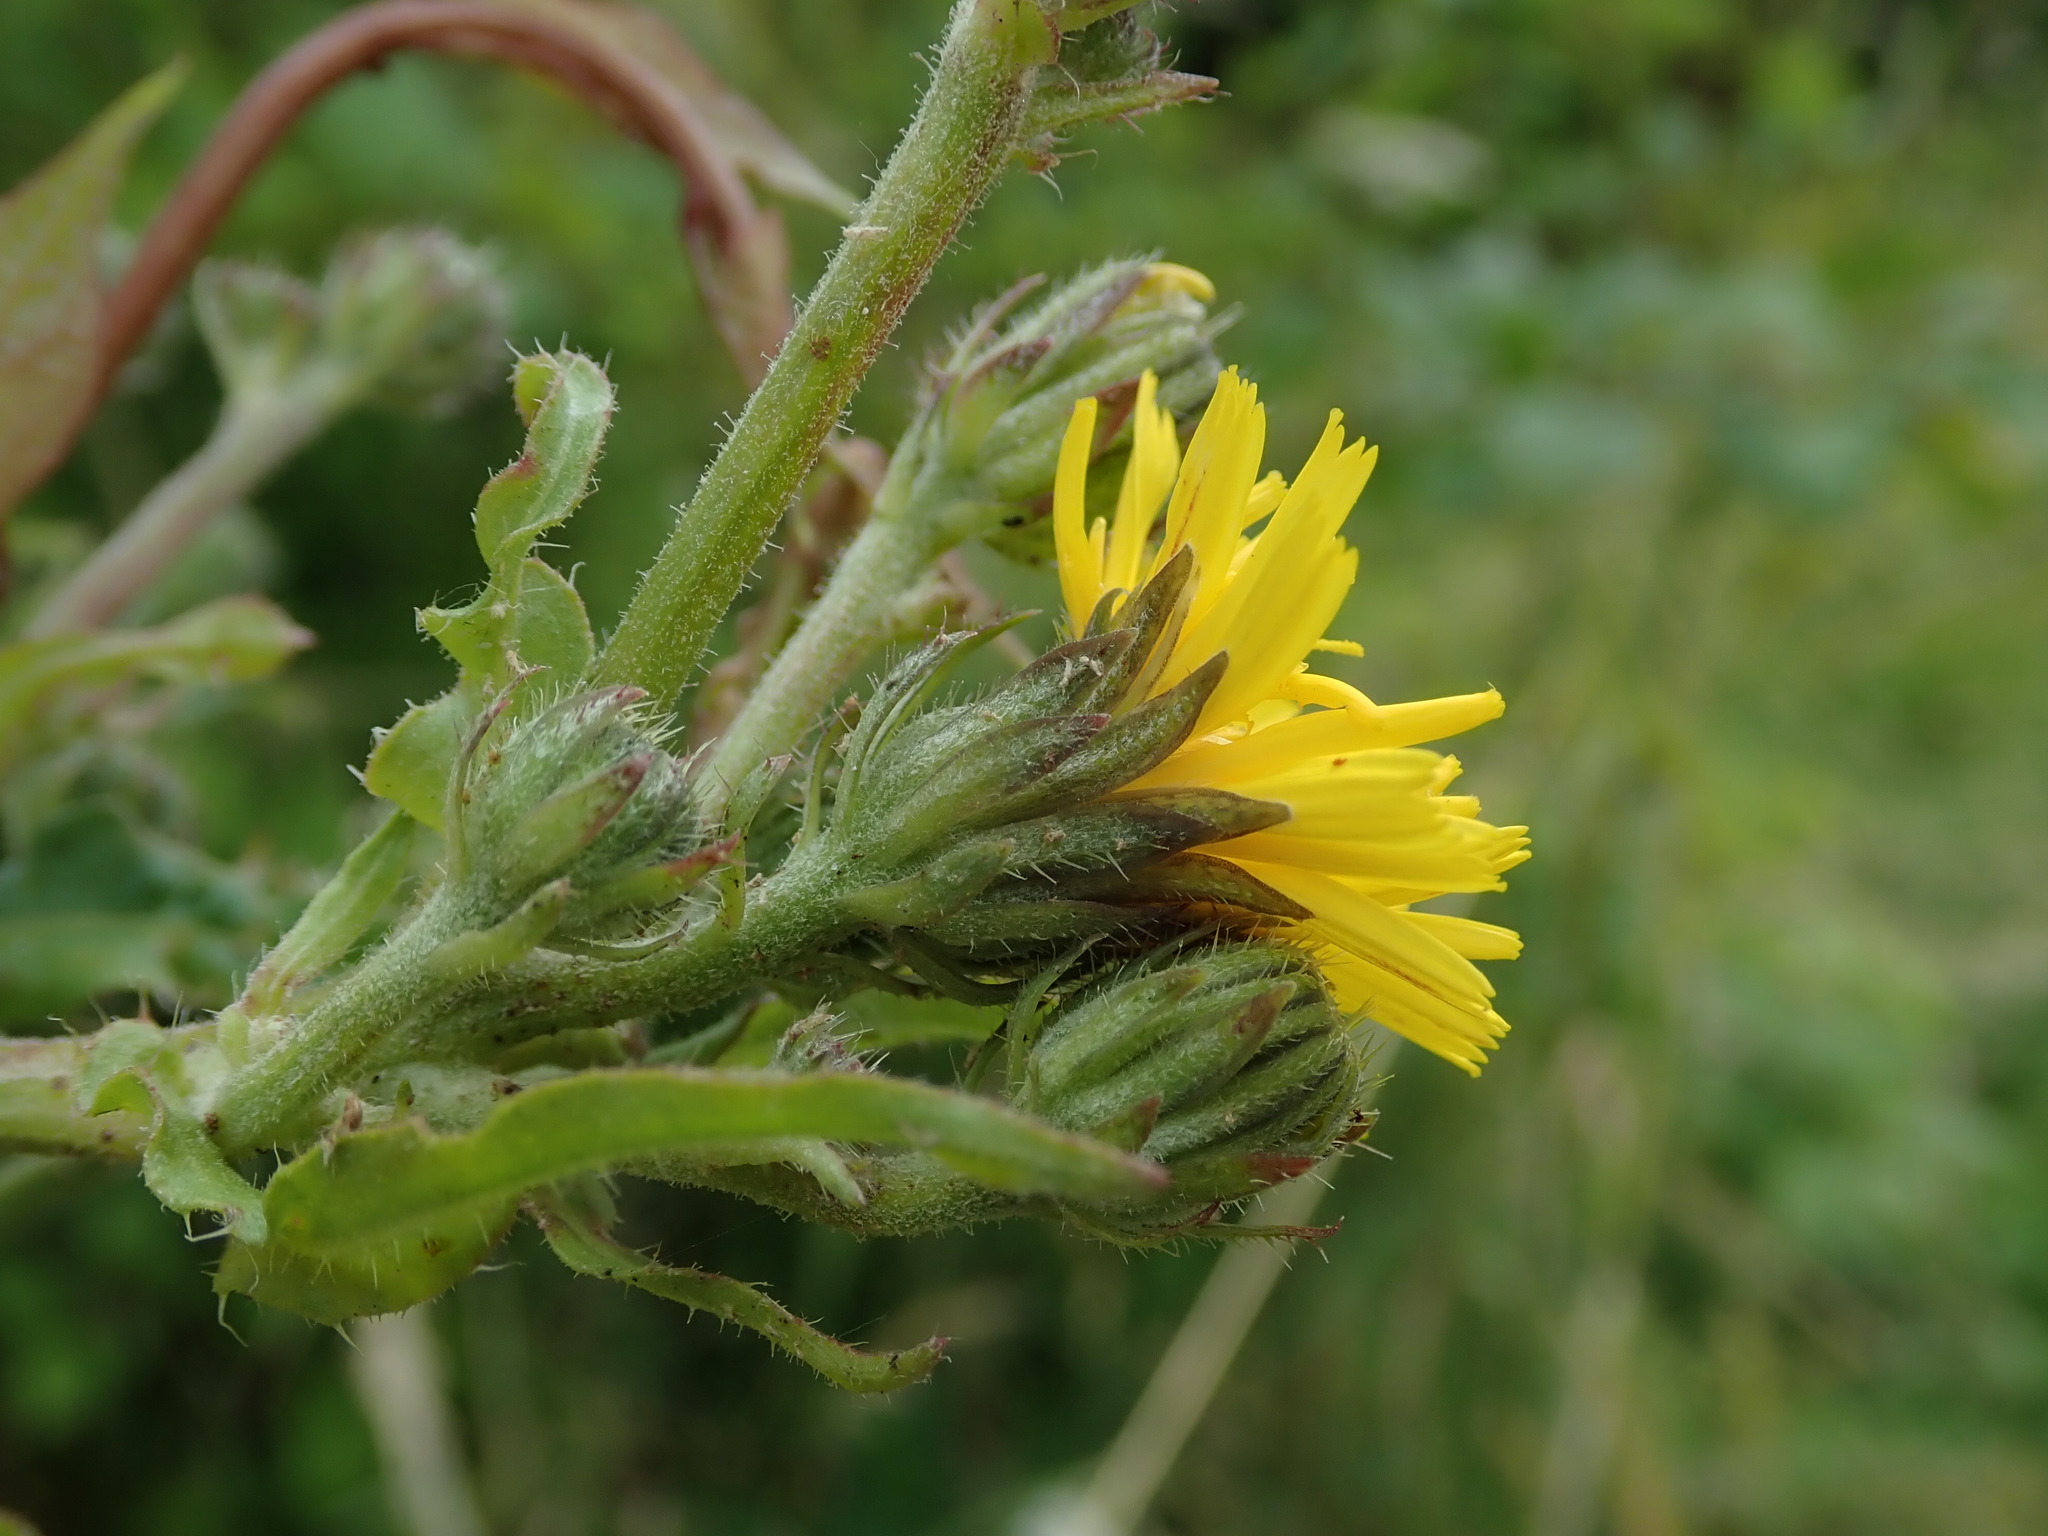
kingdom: Plantae
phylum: Tracheophyta
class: Magnoliopsida
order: Asterales
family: Asteraceae
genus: Picris
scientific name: Picris hieracioides
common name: Hawkweed oxtongue
